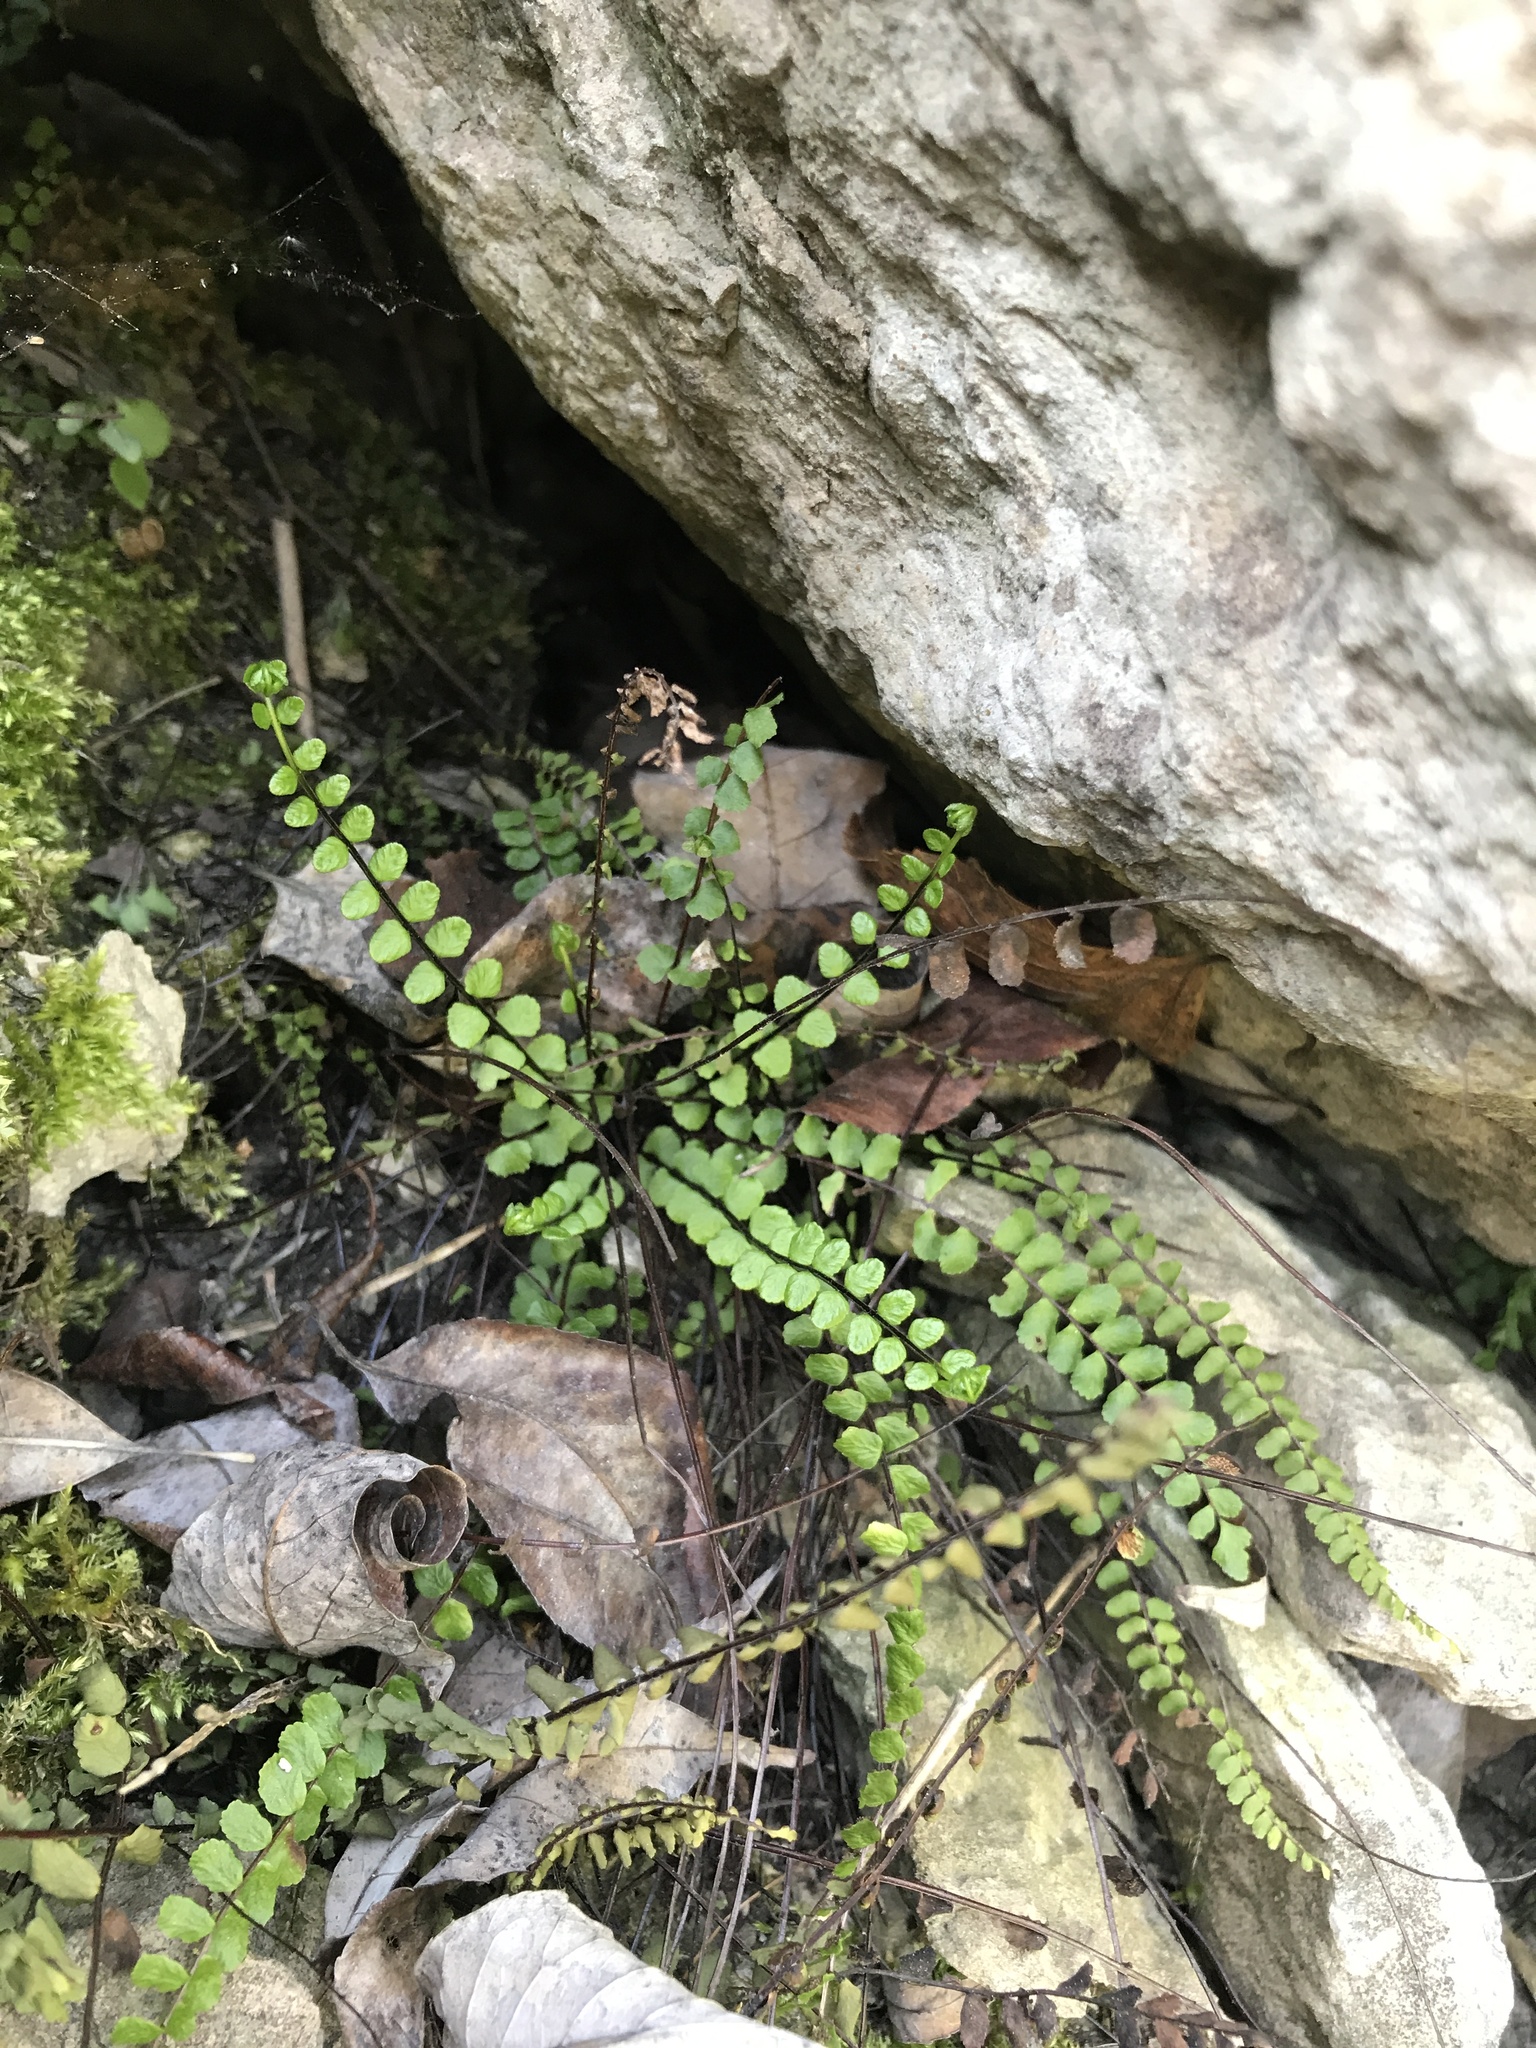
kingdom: Plantae
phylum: Tracheophyta
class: Polypodiopsida
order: Polypodiales
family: Aspleniaceae
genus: Asplenium
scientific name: Asplenium trichomanes
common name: Maidenhair spleenwort
